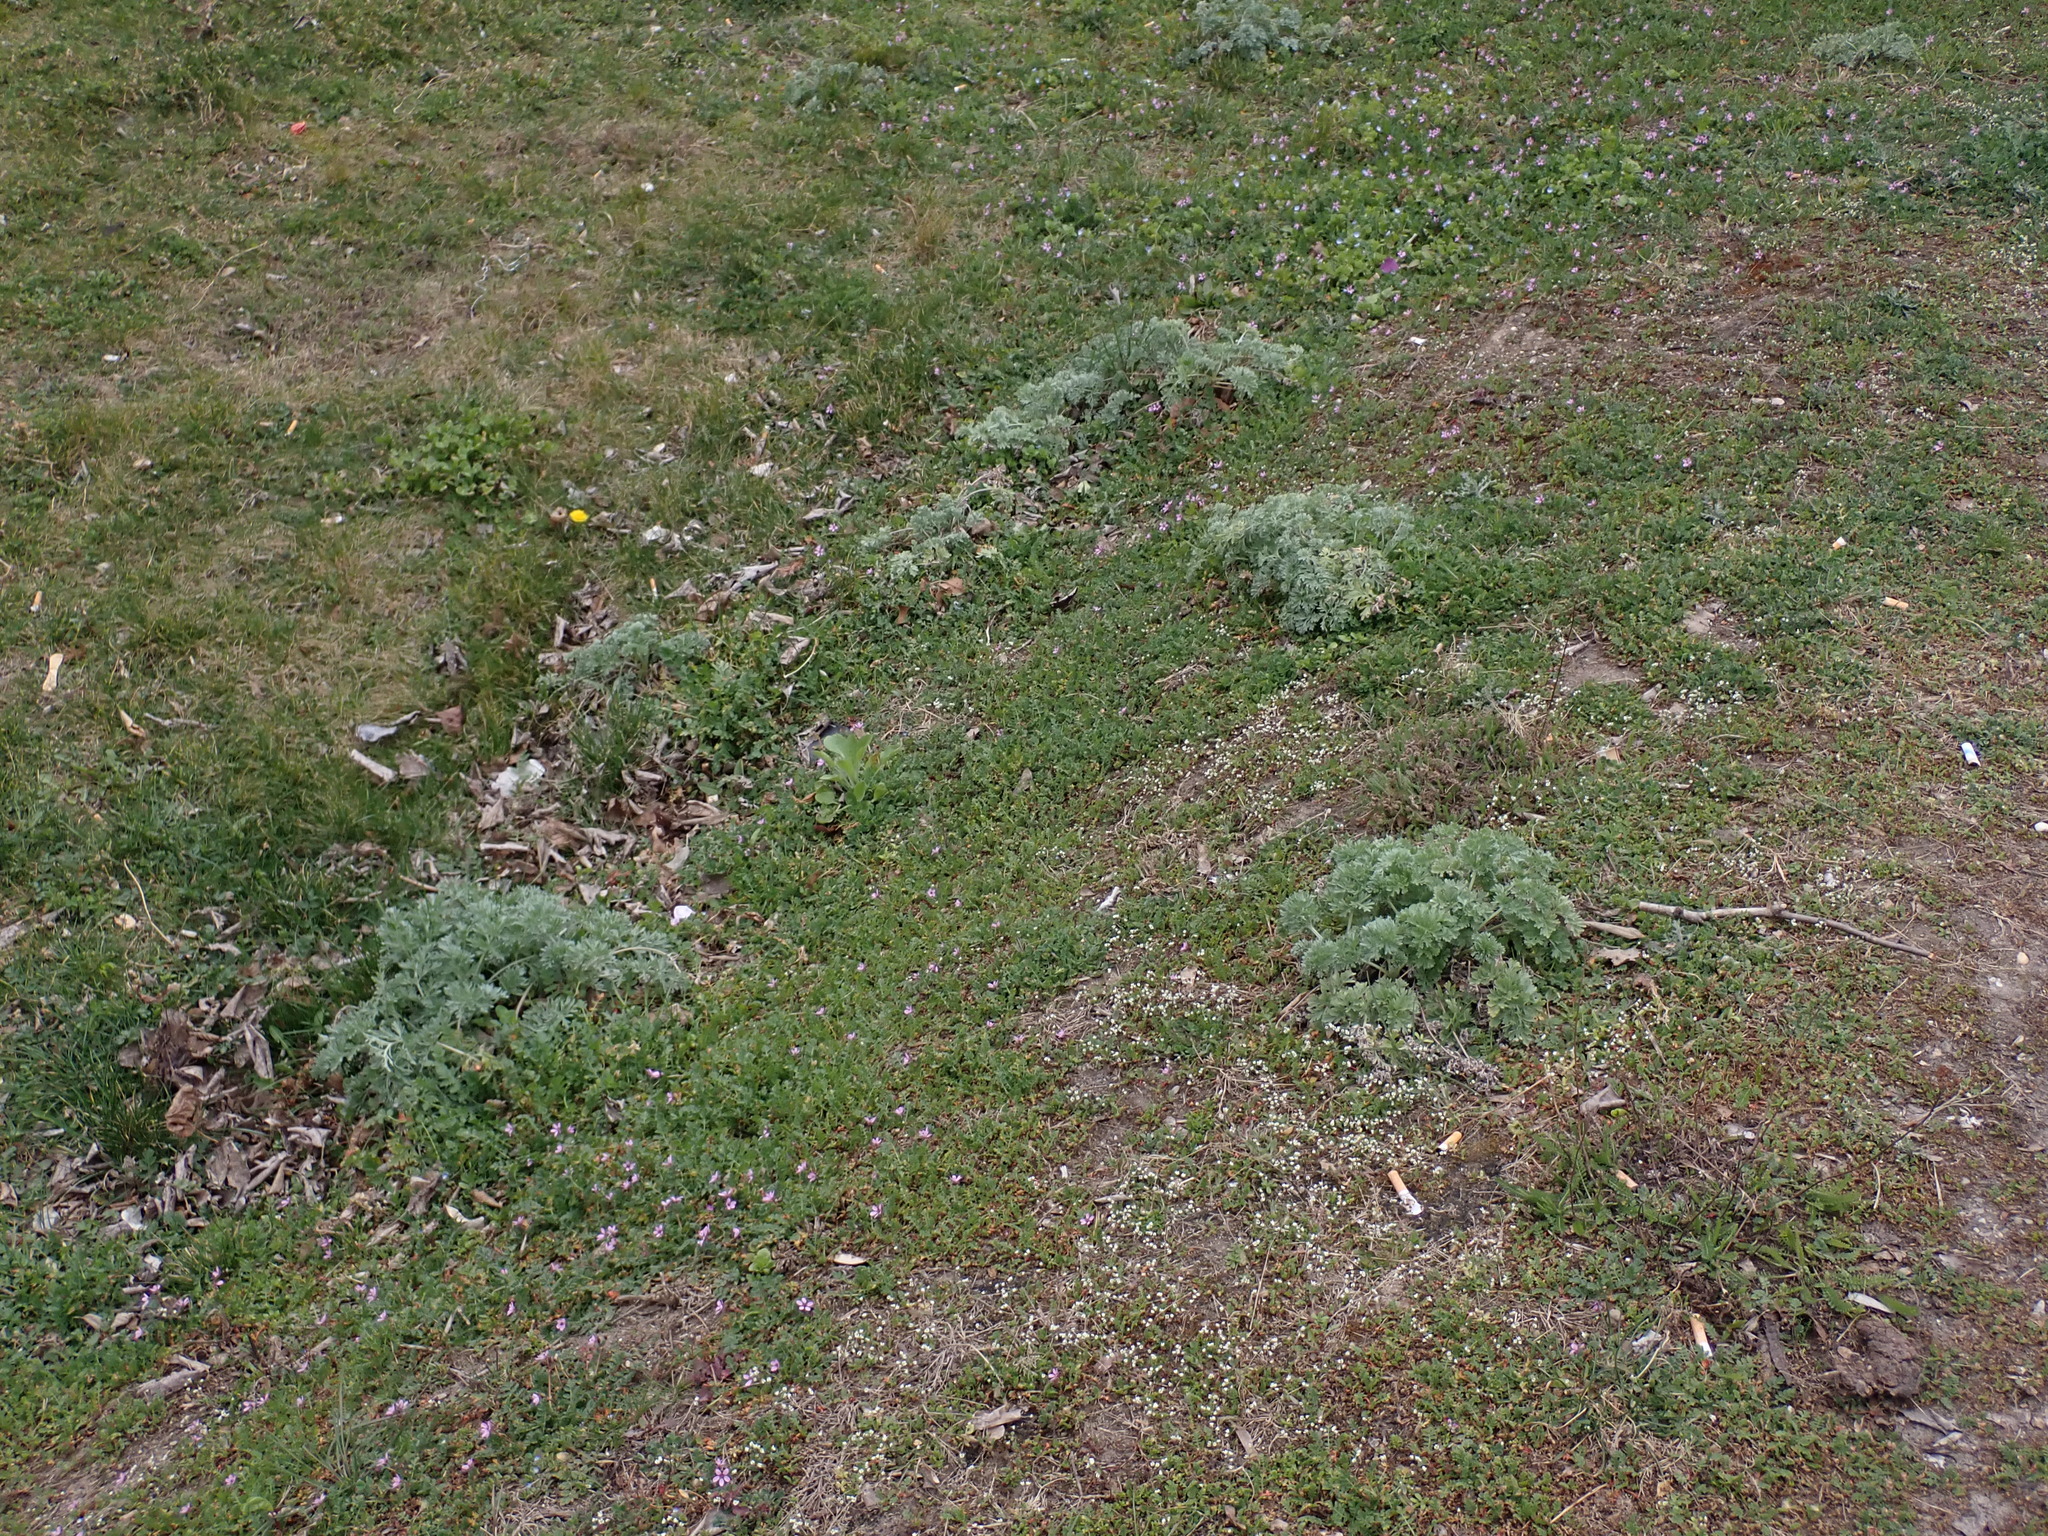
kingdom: Plantae
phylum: Tracheophyta
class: Magnoliopsida
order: Asterales
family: Asteraceae
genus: Artemisia
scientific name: Artemisia absinthium
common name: Wormwood
